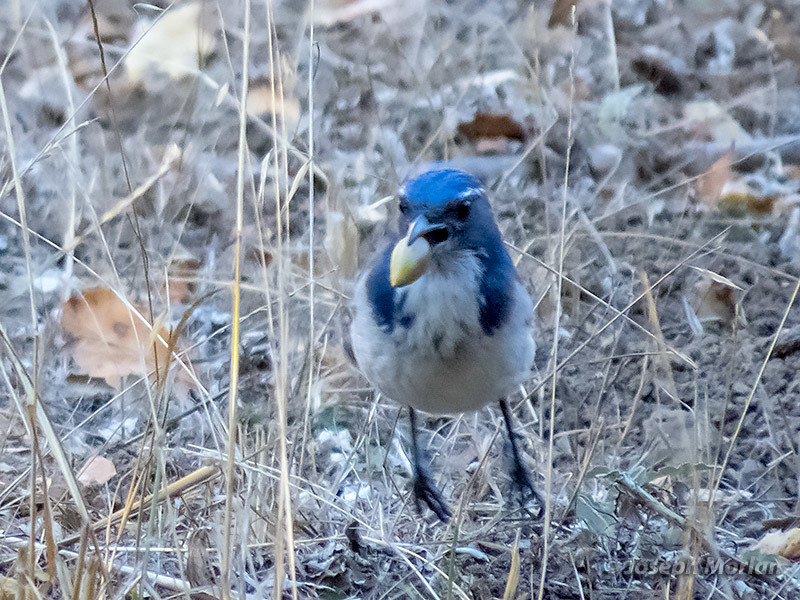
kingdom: Animalia
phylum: Chordata
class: Aves
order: Passeriformes
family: Corvidae
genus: Aphelocoma
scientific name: Aphelocoma californica
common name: California scrub-jay
